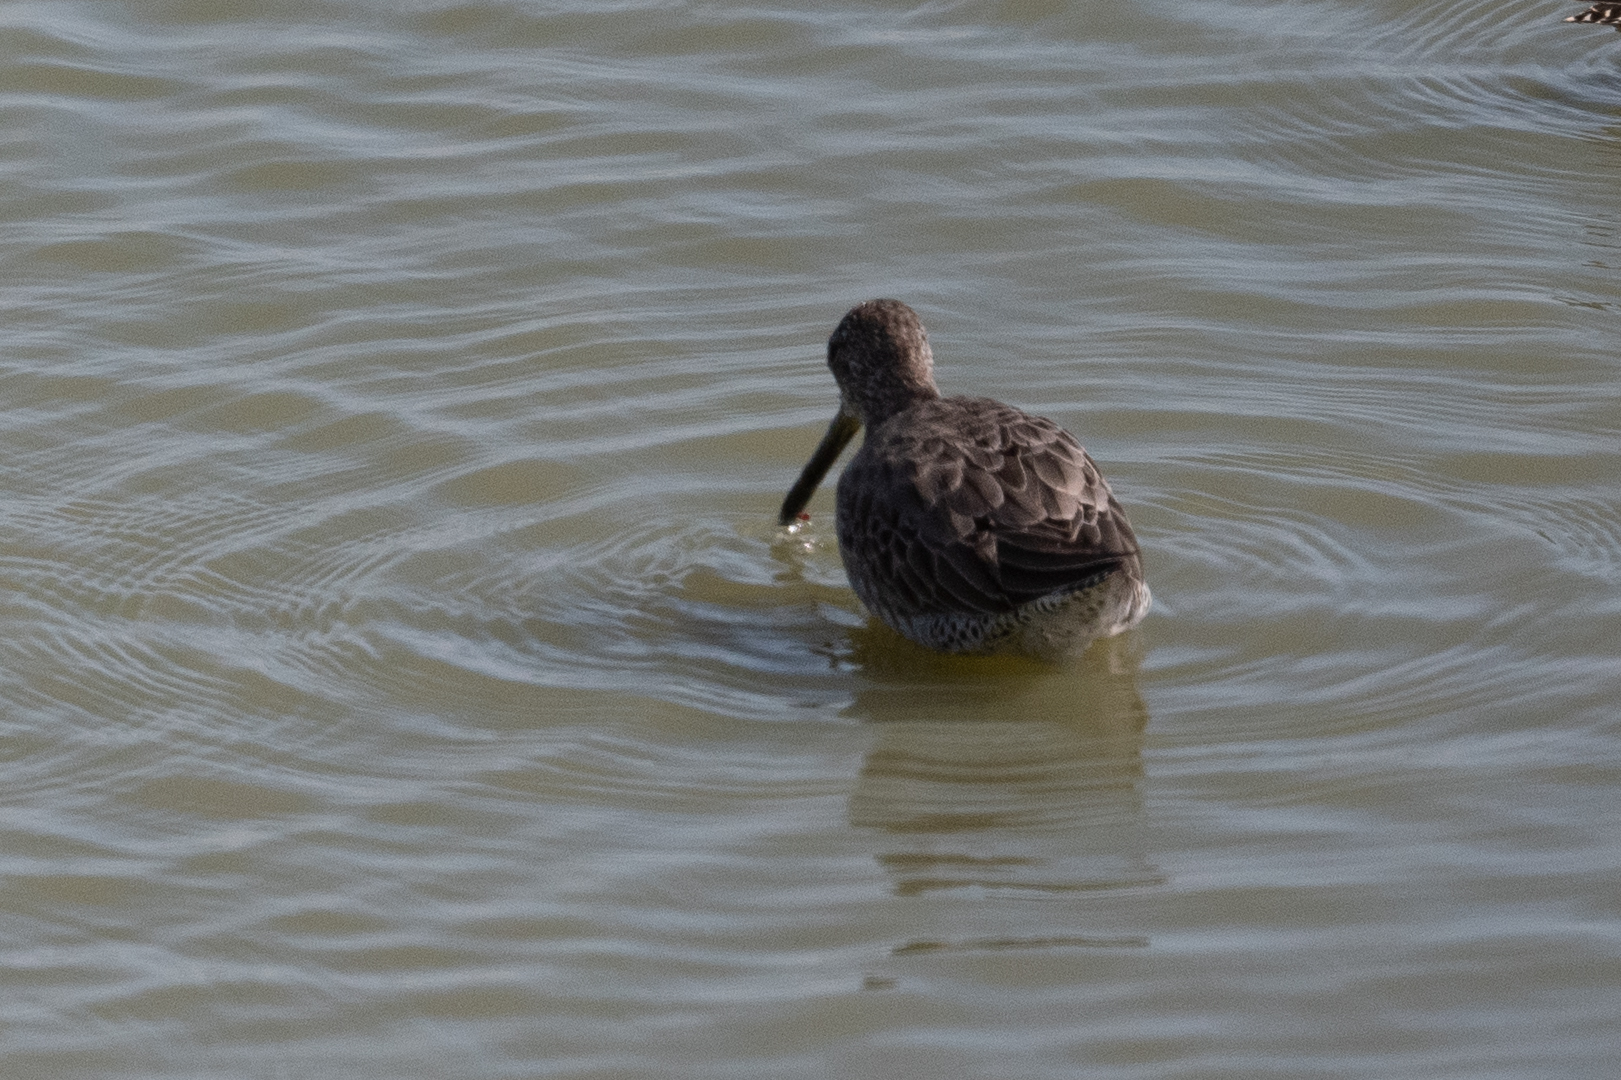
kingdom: Animalia
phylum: Chordata
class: Aves
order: Charadriiformes
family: Scolopacidae
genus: Limnodromus
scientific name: Limnodromus scolopaceus
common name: Long-billed dowitcher
